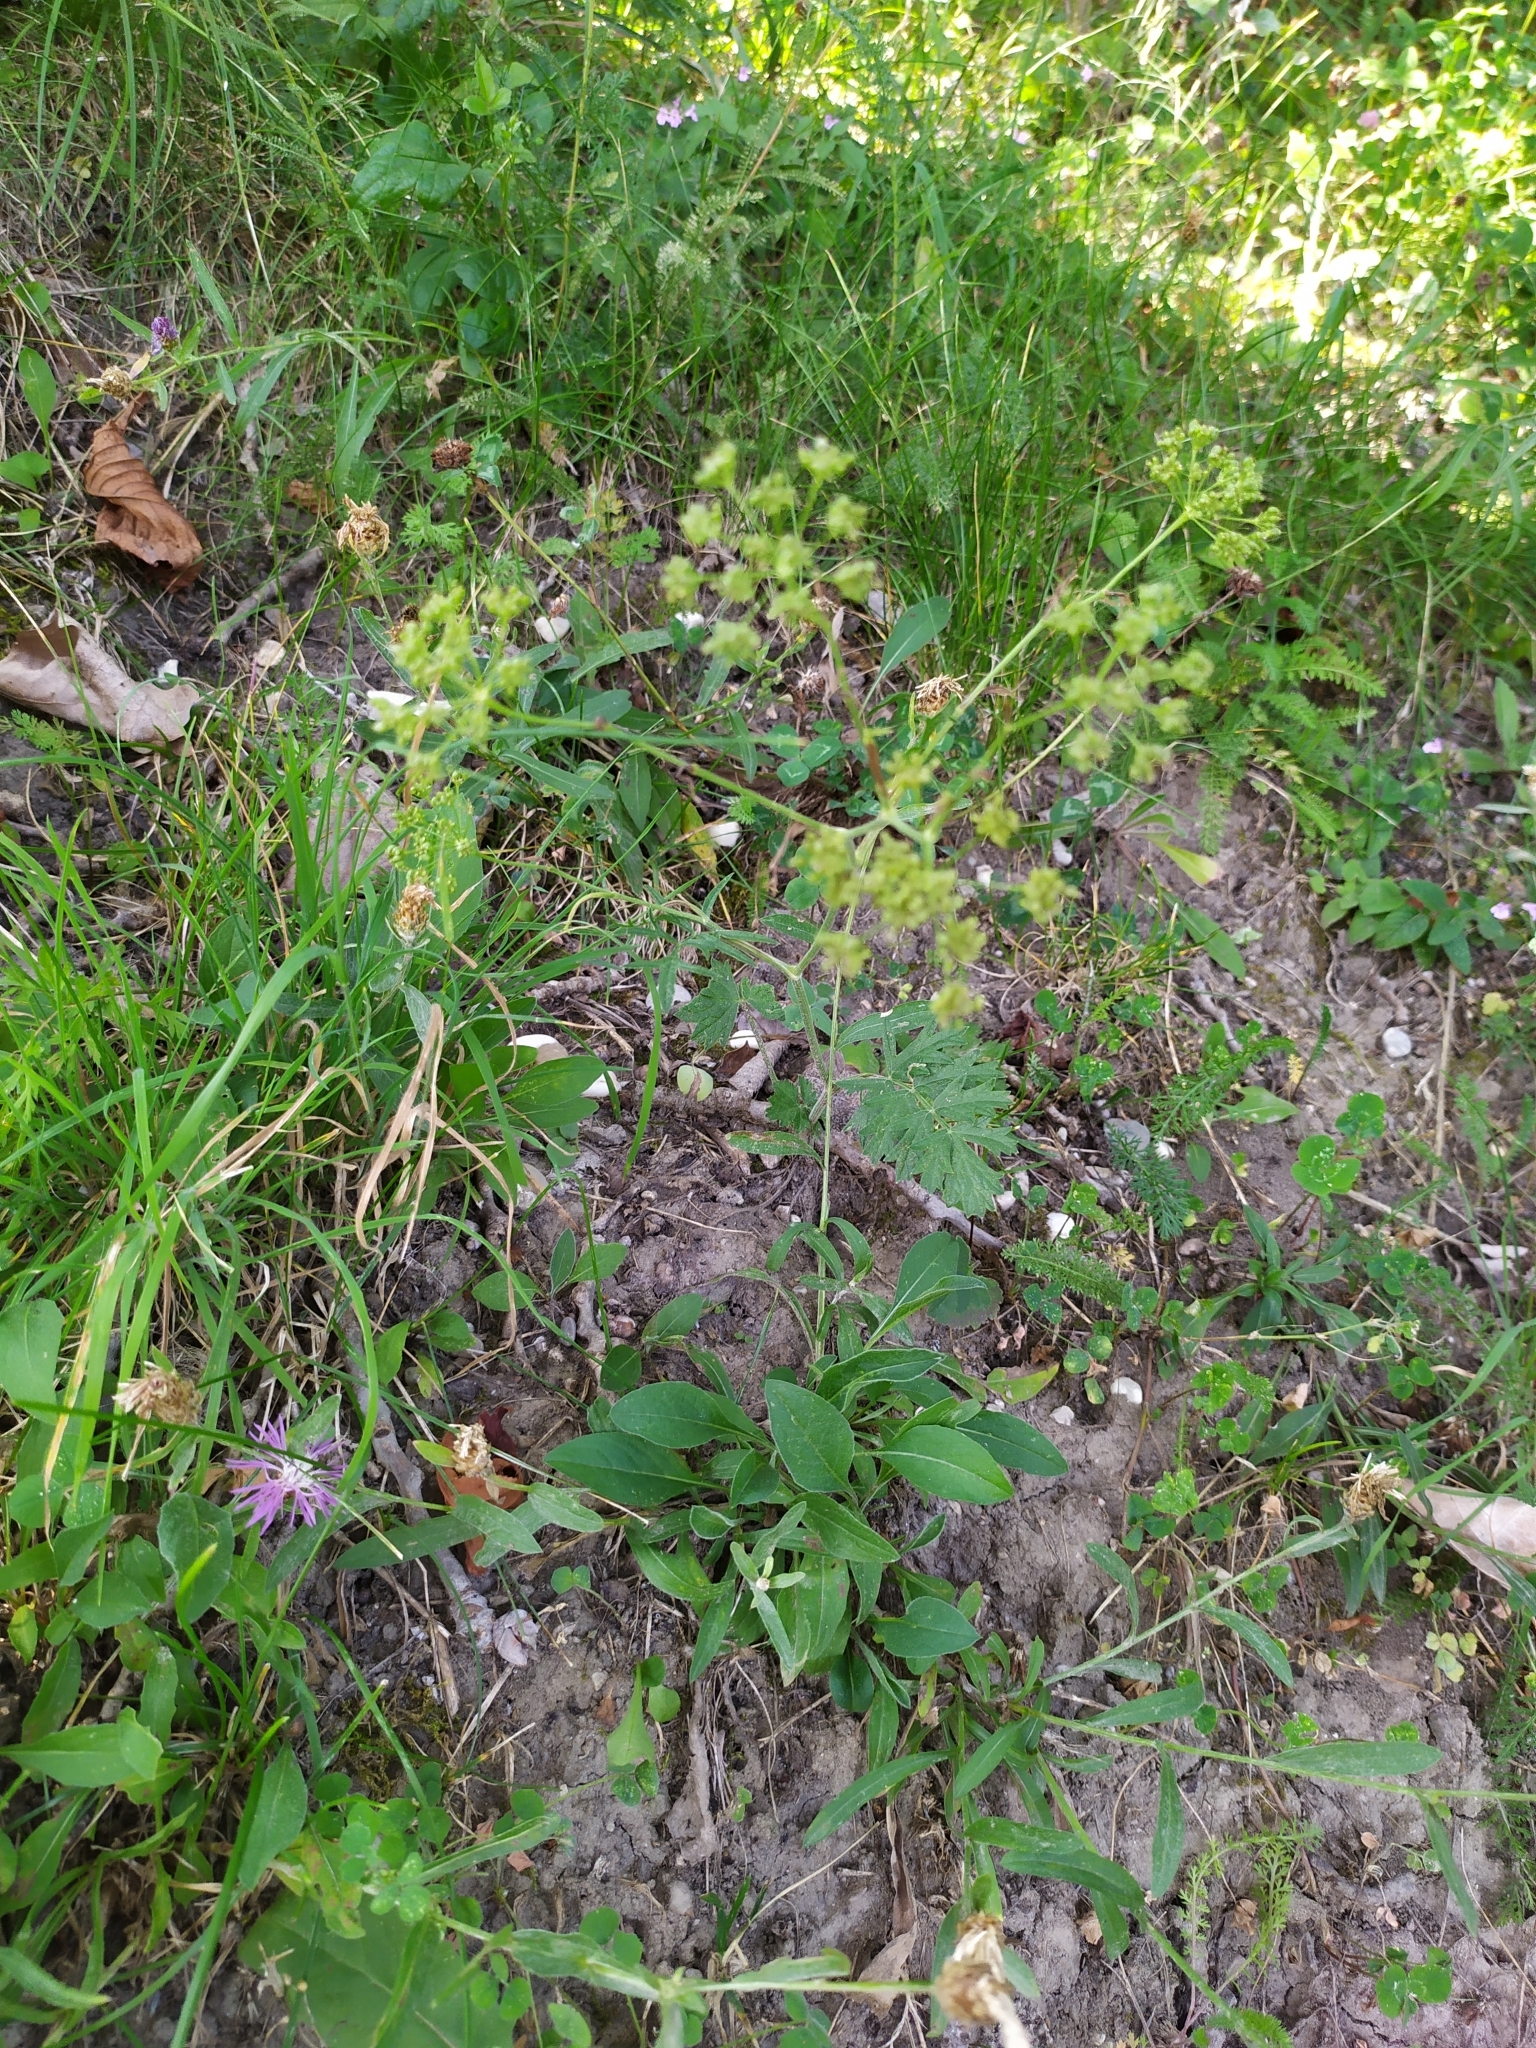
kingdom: Plantae
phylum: Tracheophyta
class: Magnoliopsida
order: Apiales
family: Apiaceae
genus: Pimpinella
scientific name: Pimpinella saxifraga
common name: Burnet-saxifrage
